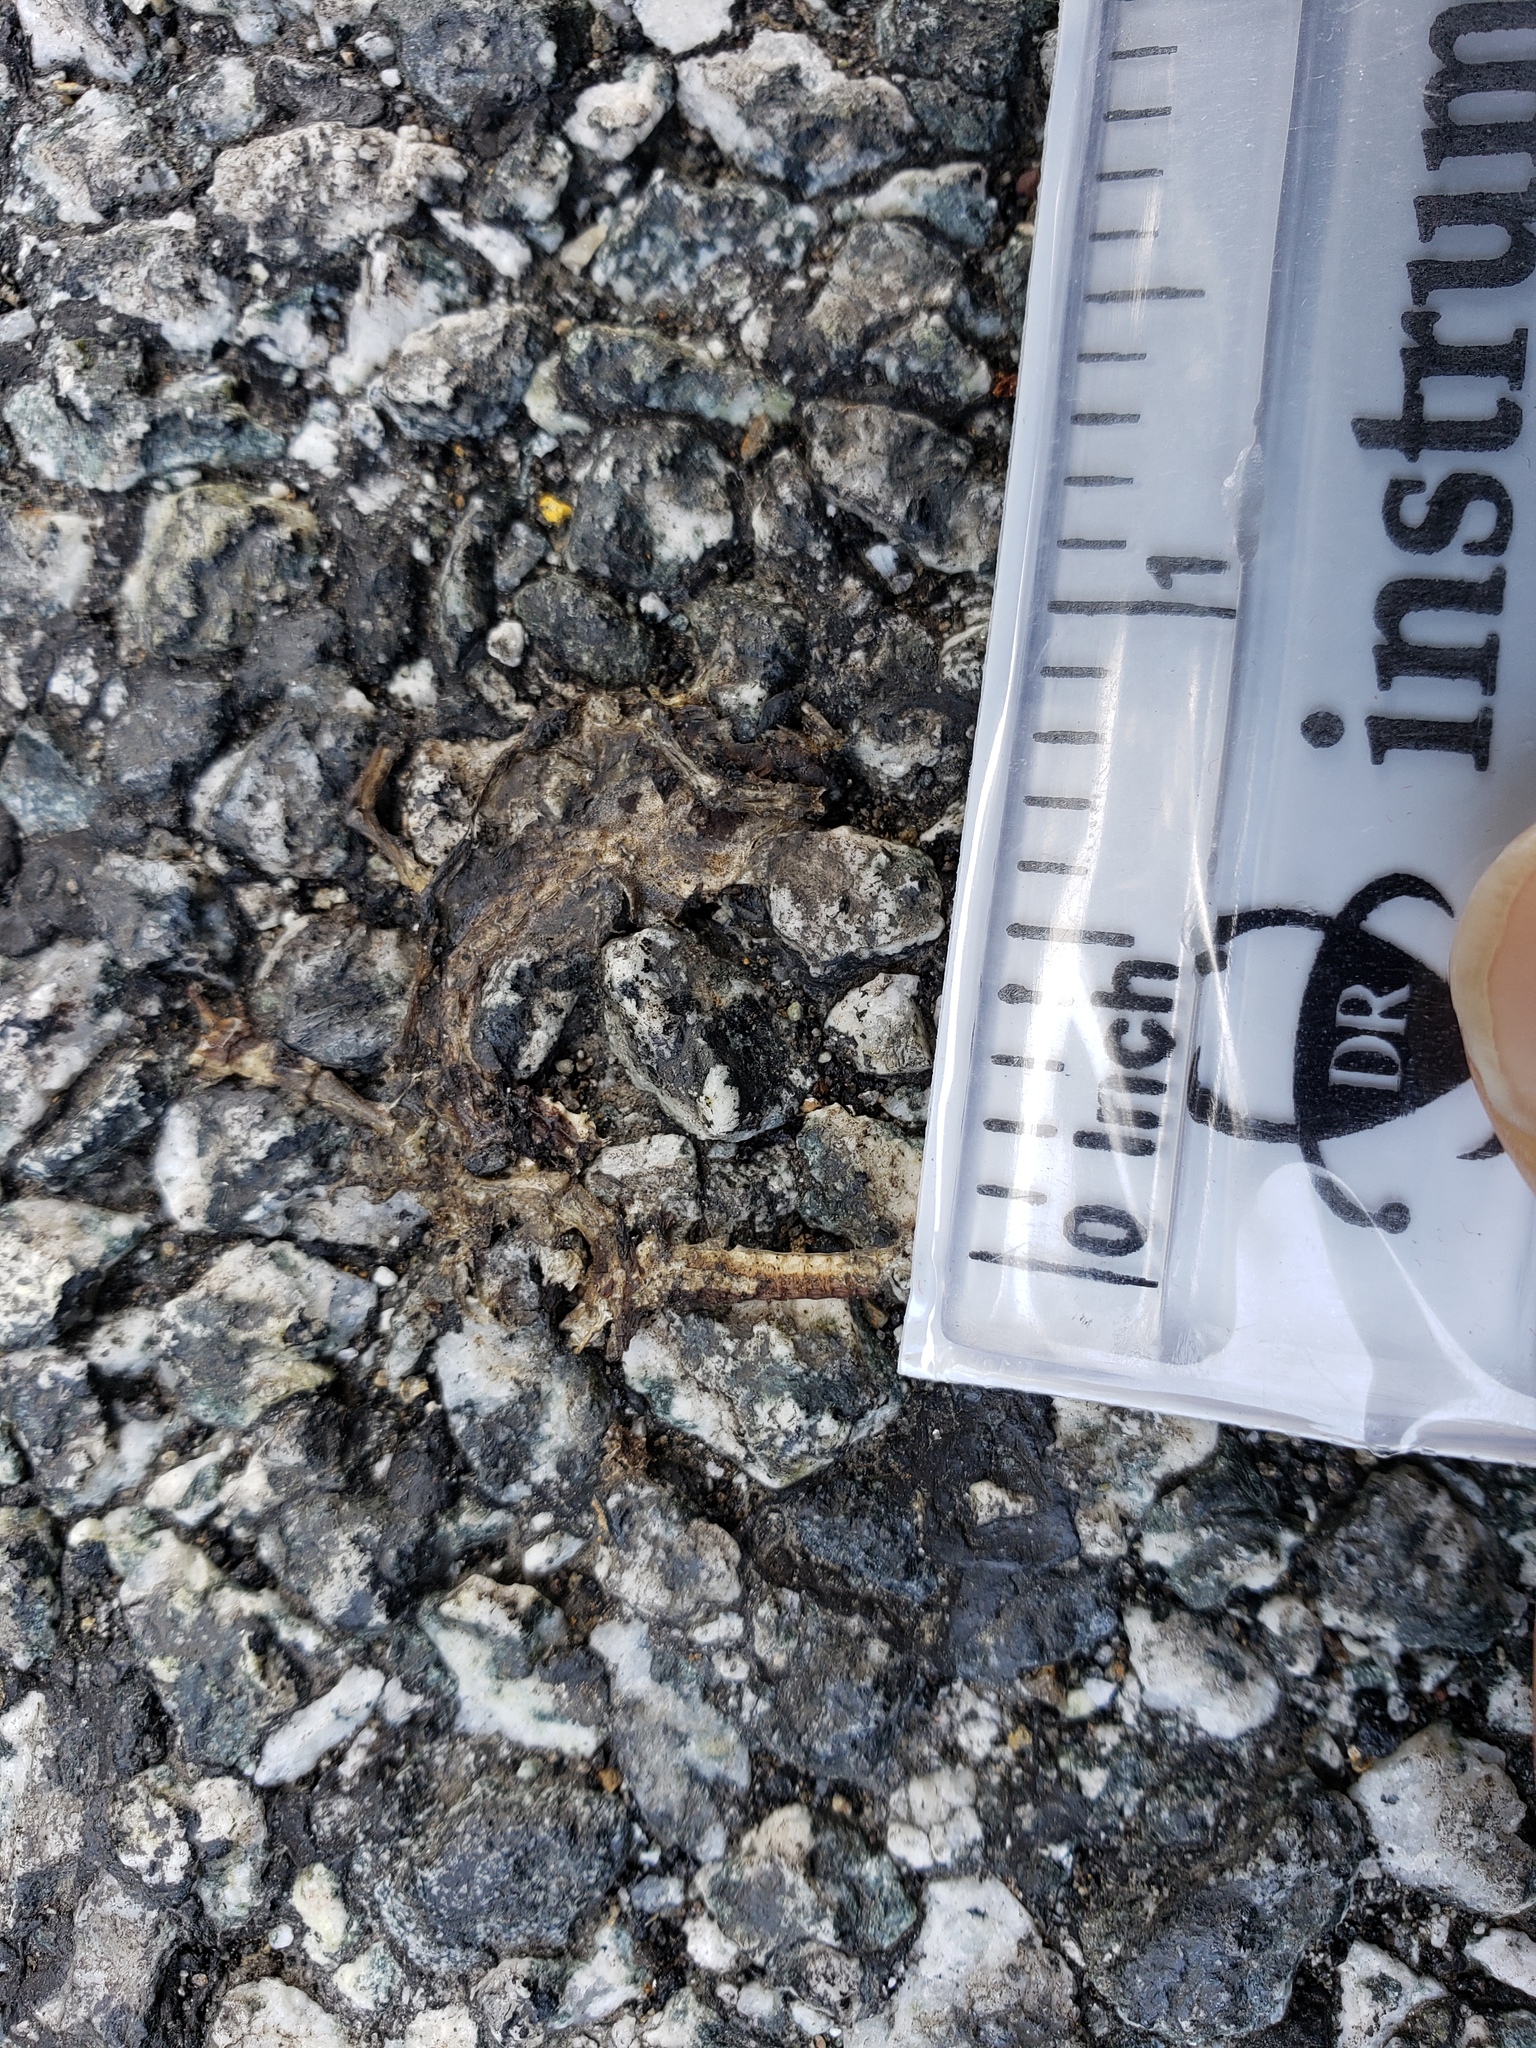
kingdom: Animalia
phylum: Chordata
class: Amphibia
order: Caudata
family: Salamandridae
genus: Taricha
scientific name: Taricha
